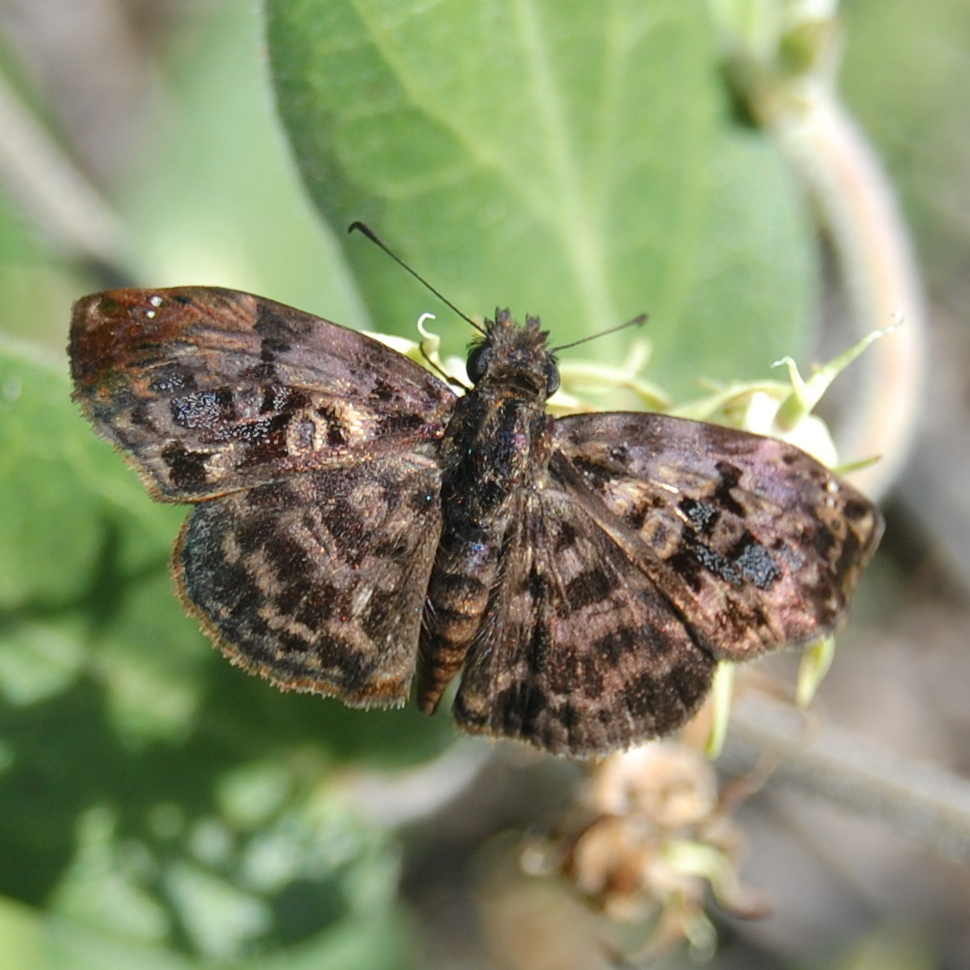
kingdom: Animalia
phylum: Arthropoda
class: Insecta
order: Lepidoptera
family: Hesperiidae
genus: Gorgythion
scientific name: Gorgythion begga
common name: Variegated skipper
